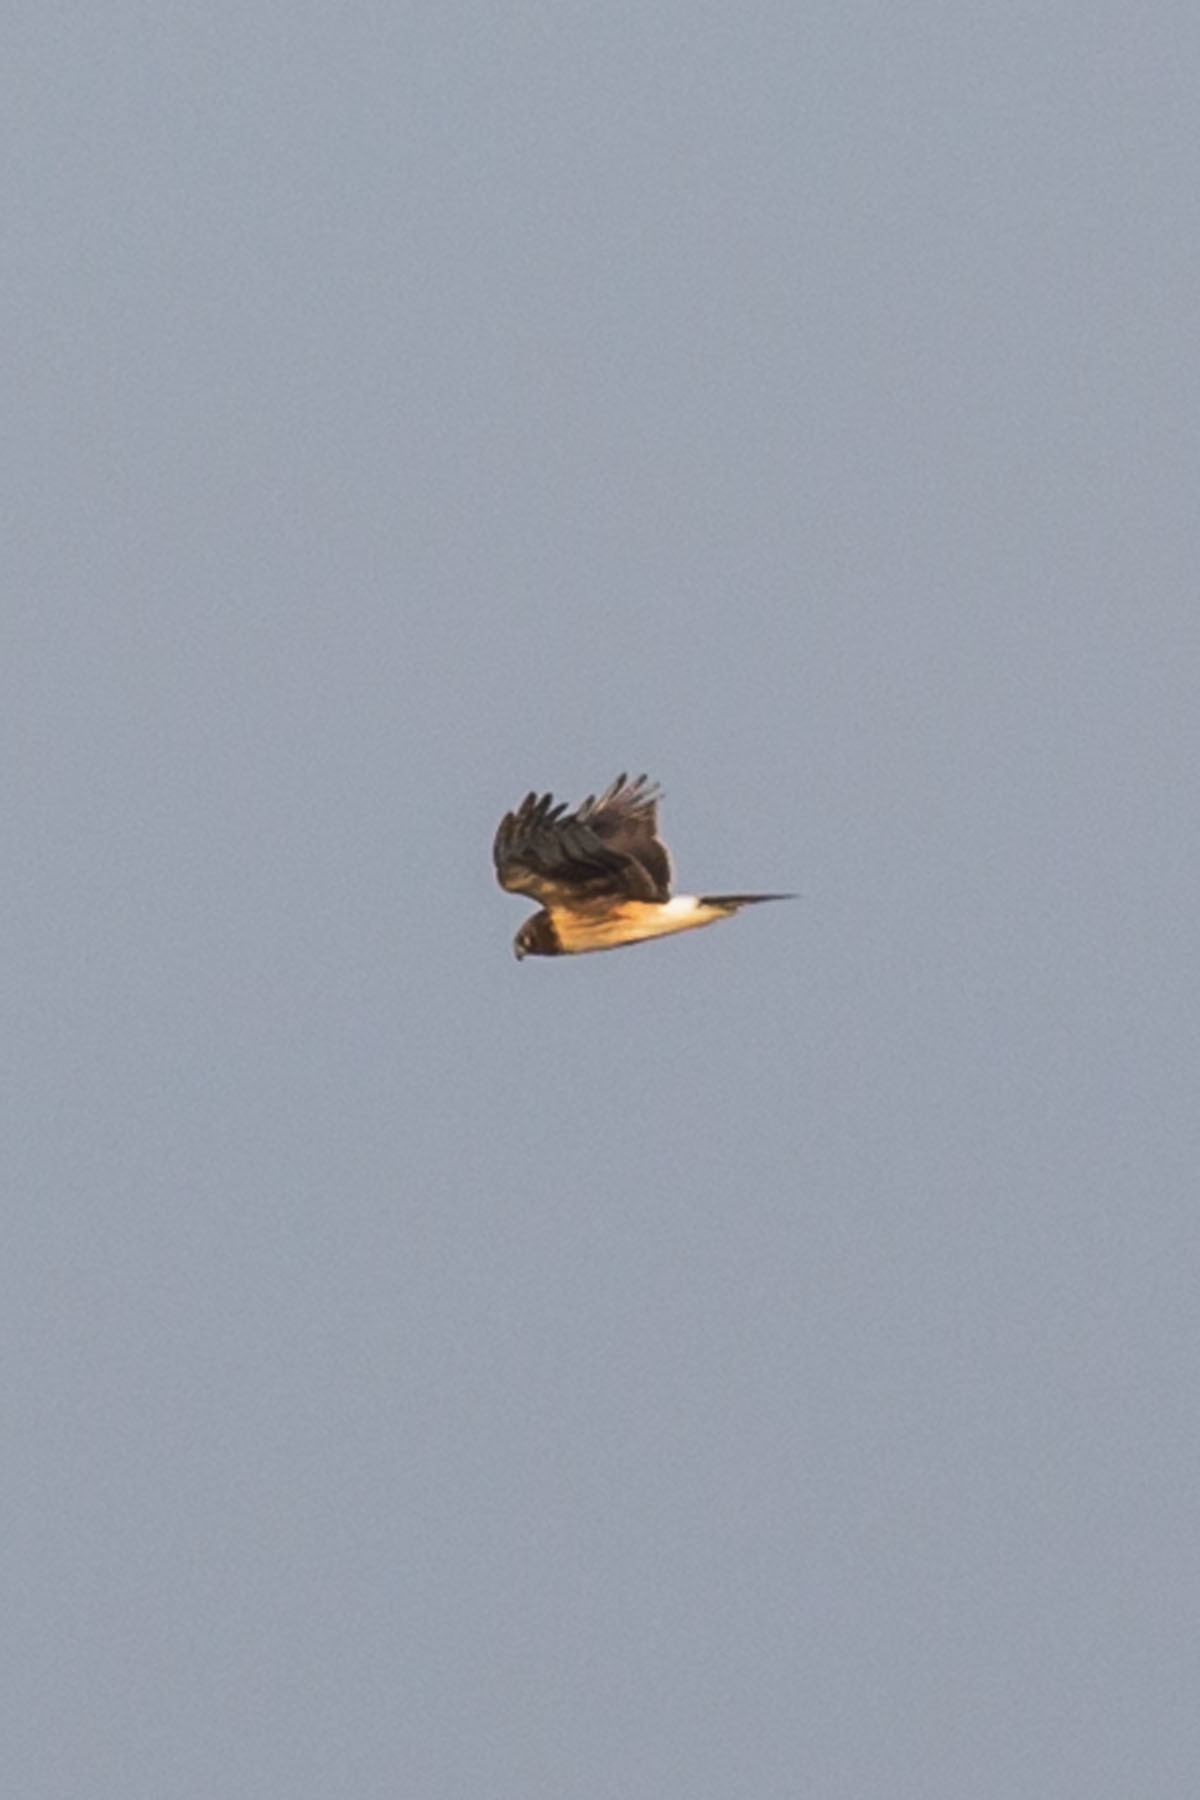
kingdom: Animalia
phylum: Chordata
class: Aves
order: Accipitriformes
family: Accipitridae
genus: Circus
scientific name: Circus cyaneus
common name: Hen harrier
